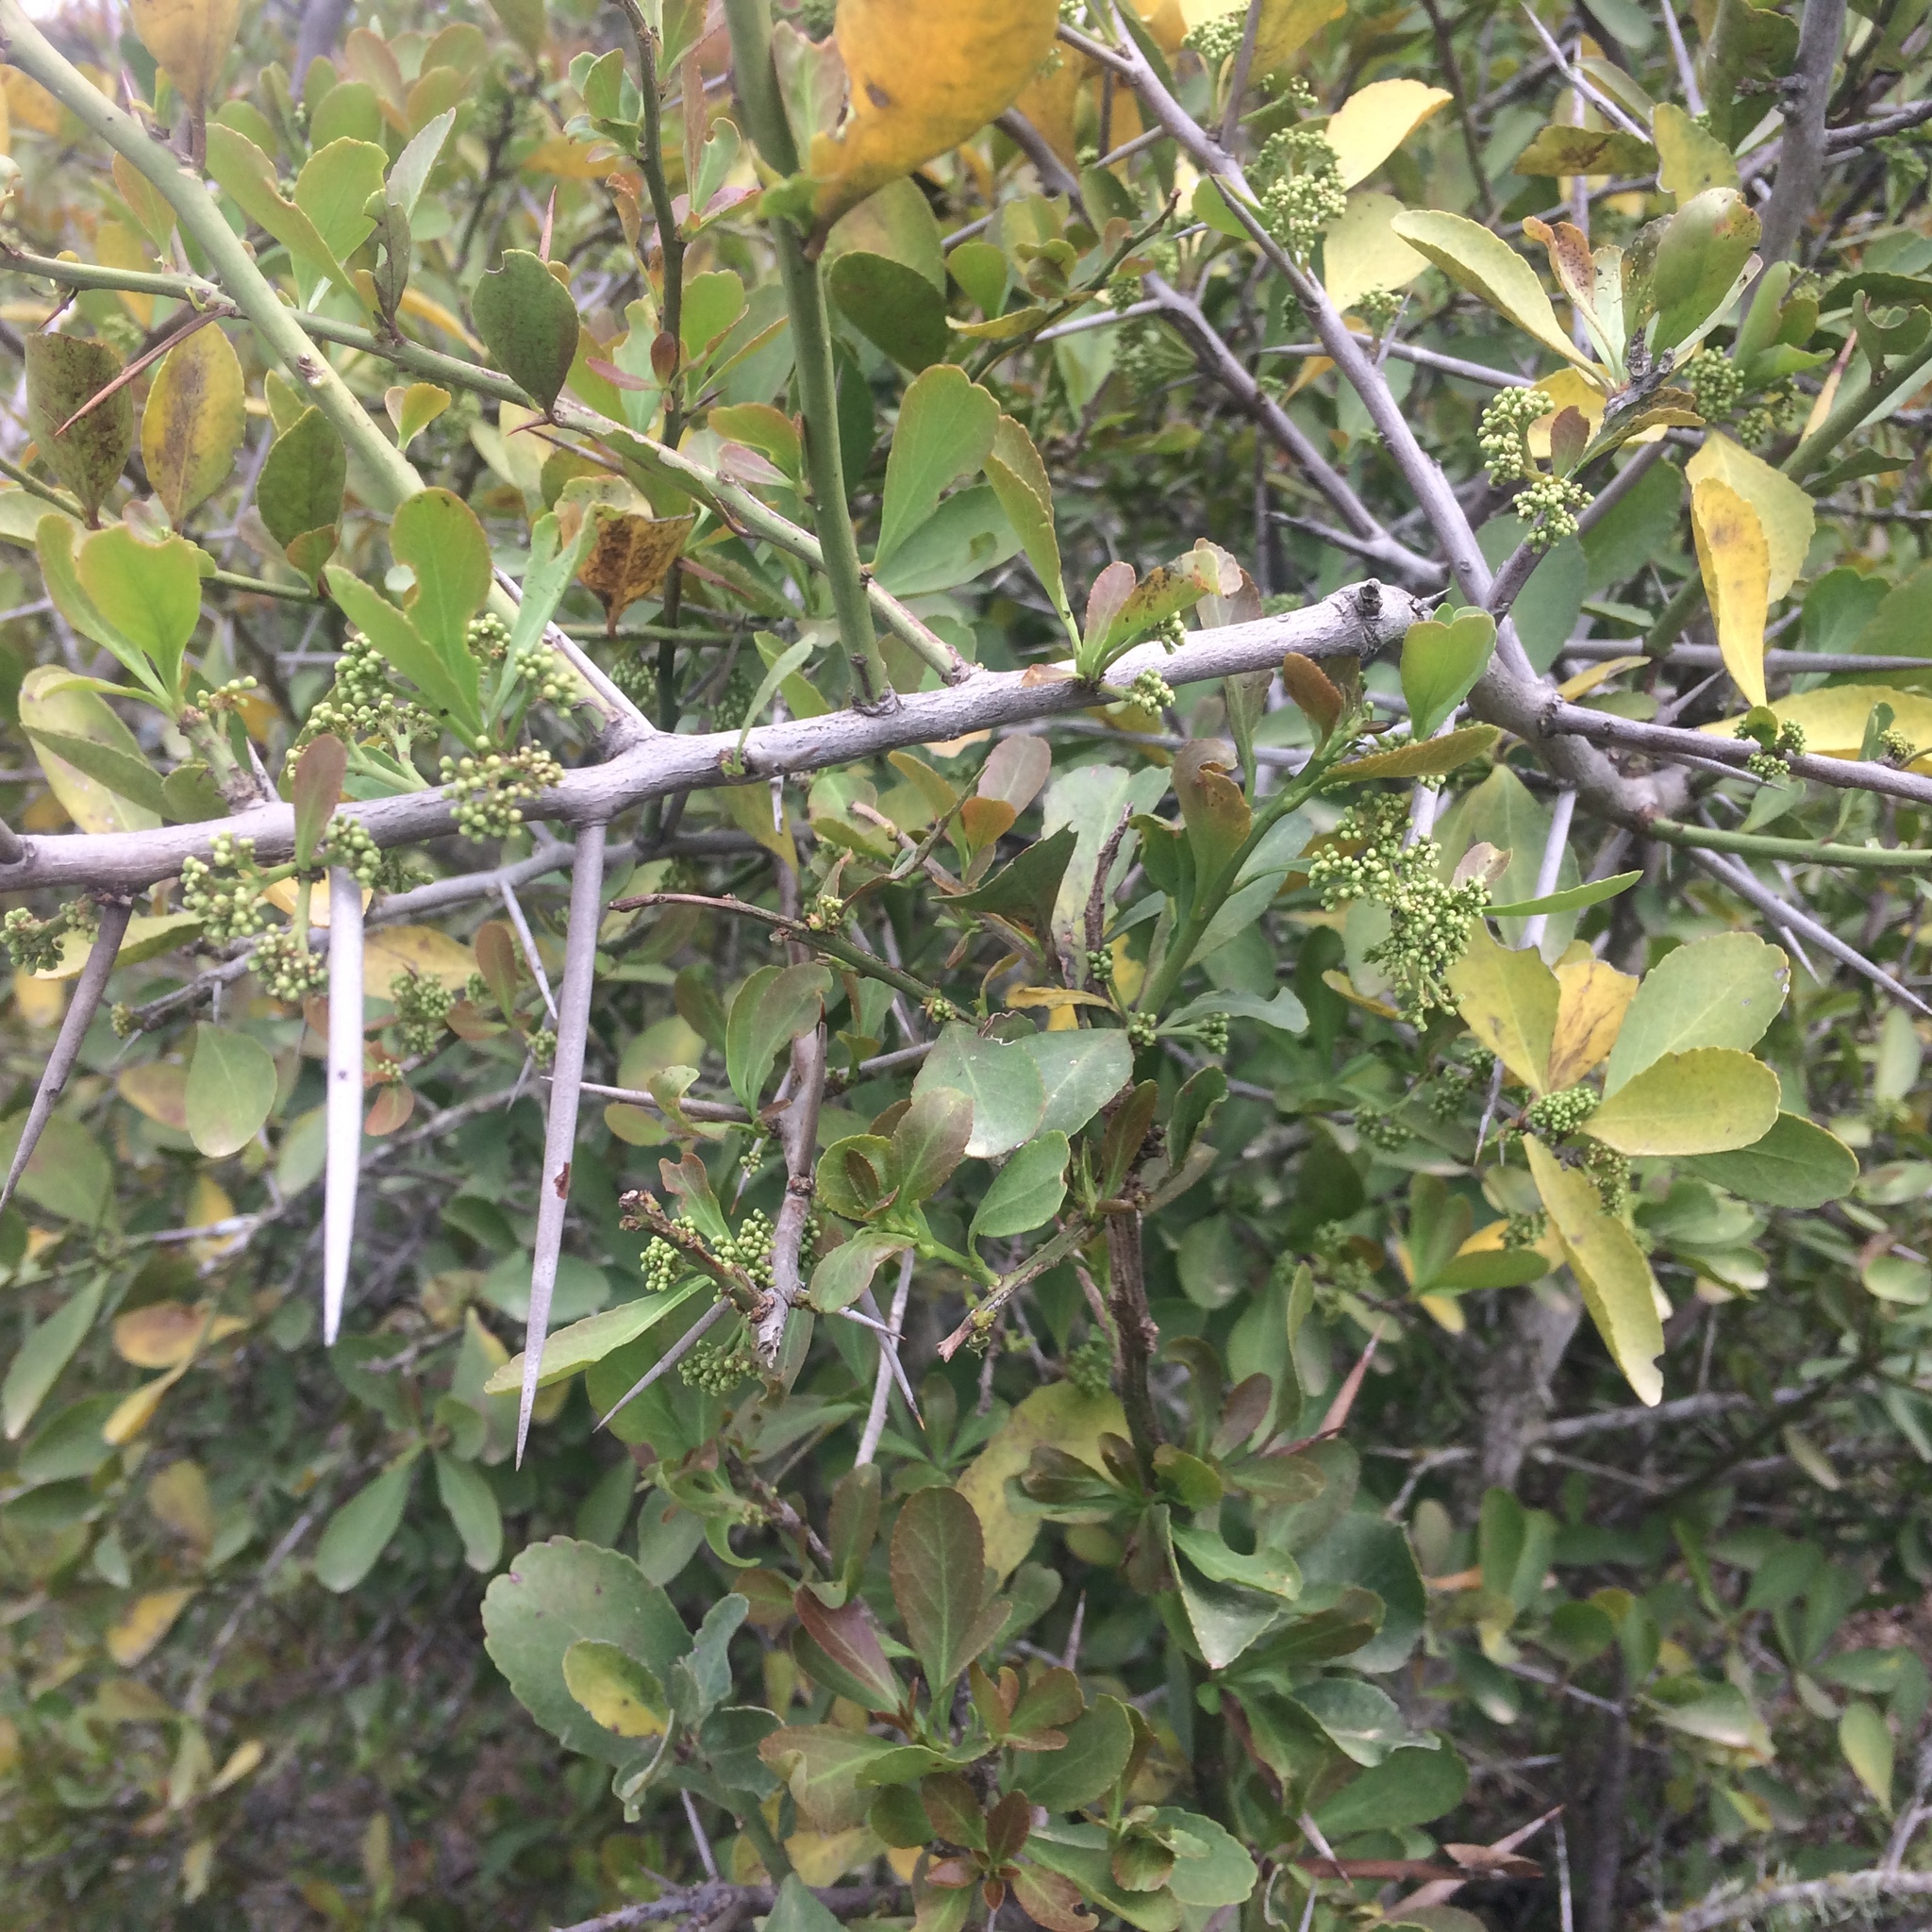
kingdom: Plantae
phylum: Tracheophyta
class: Magnoliopsida
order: Celastrales
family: Celastraceae
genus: Gymnosporia
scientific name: Gymnosporia buxifolia
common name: Common spike-thorn
